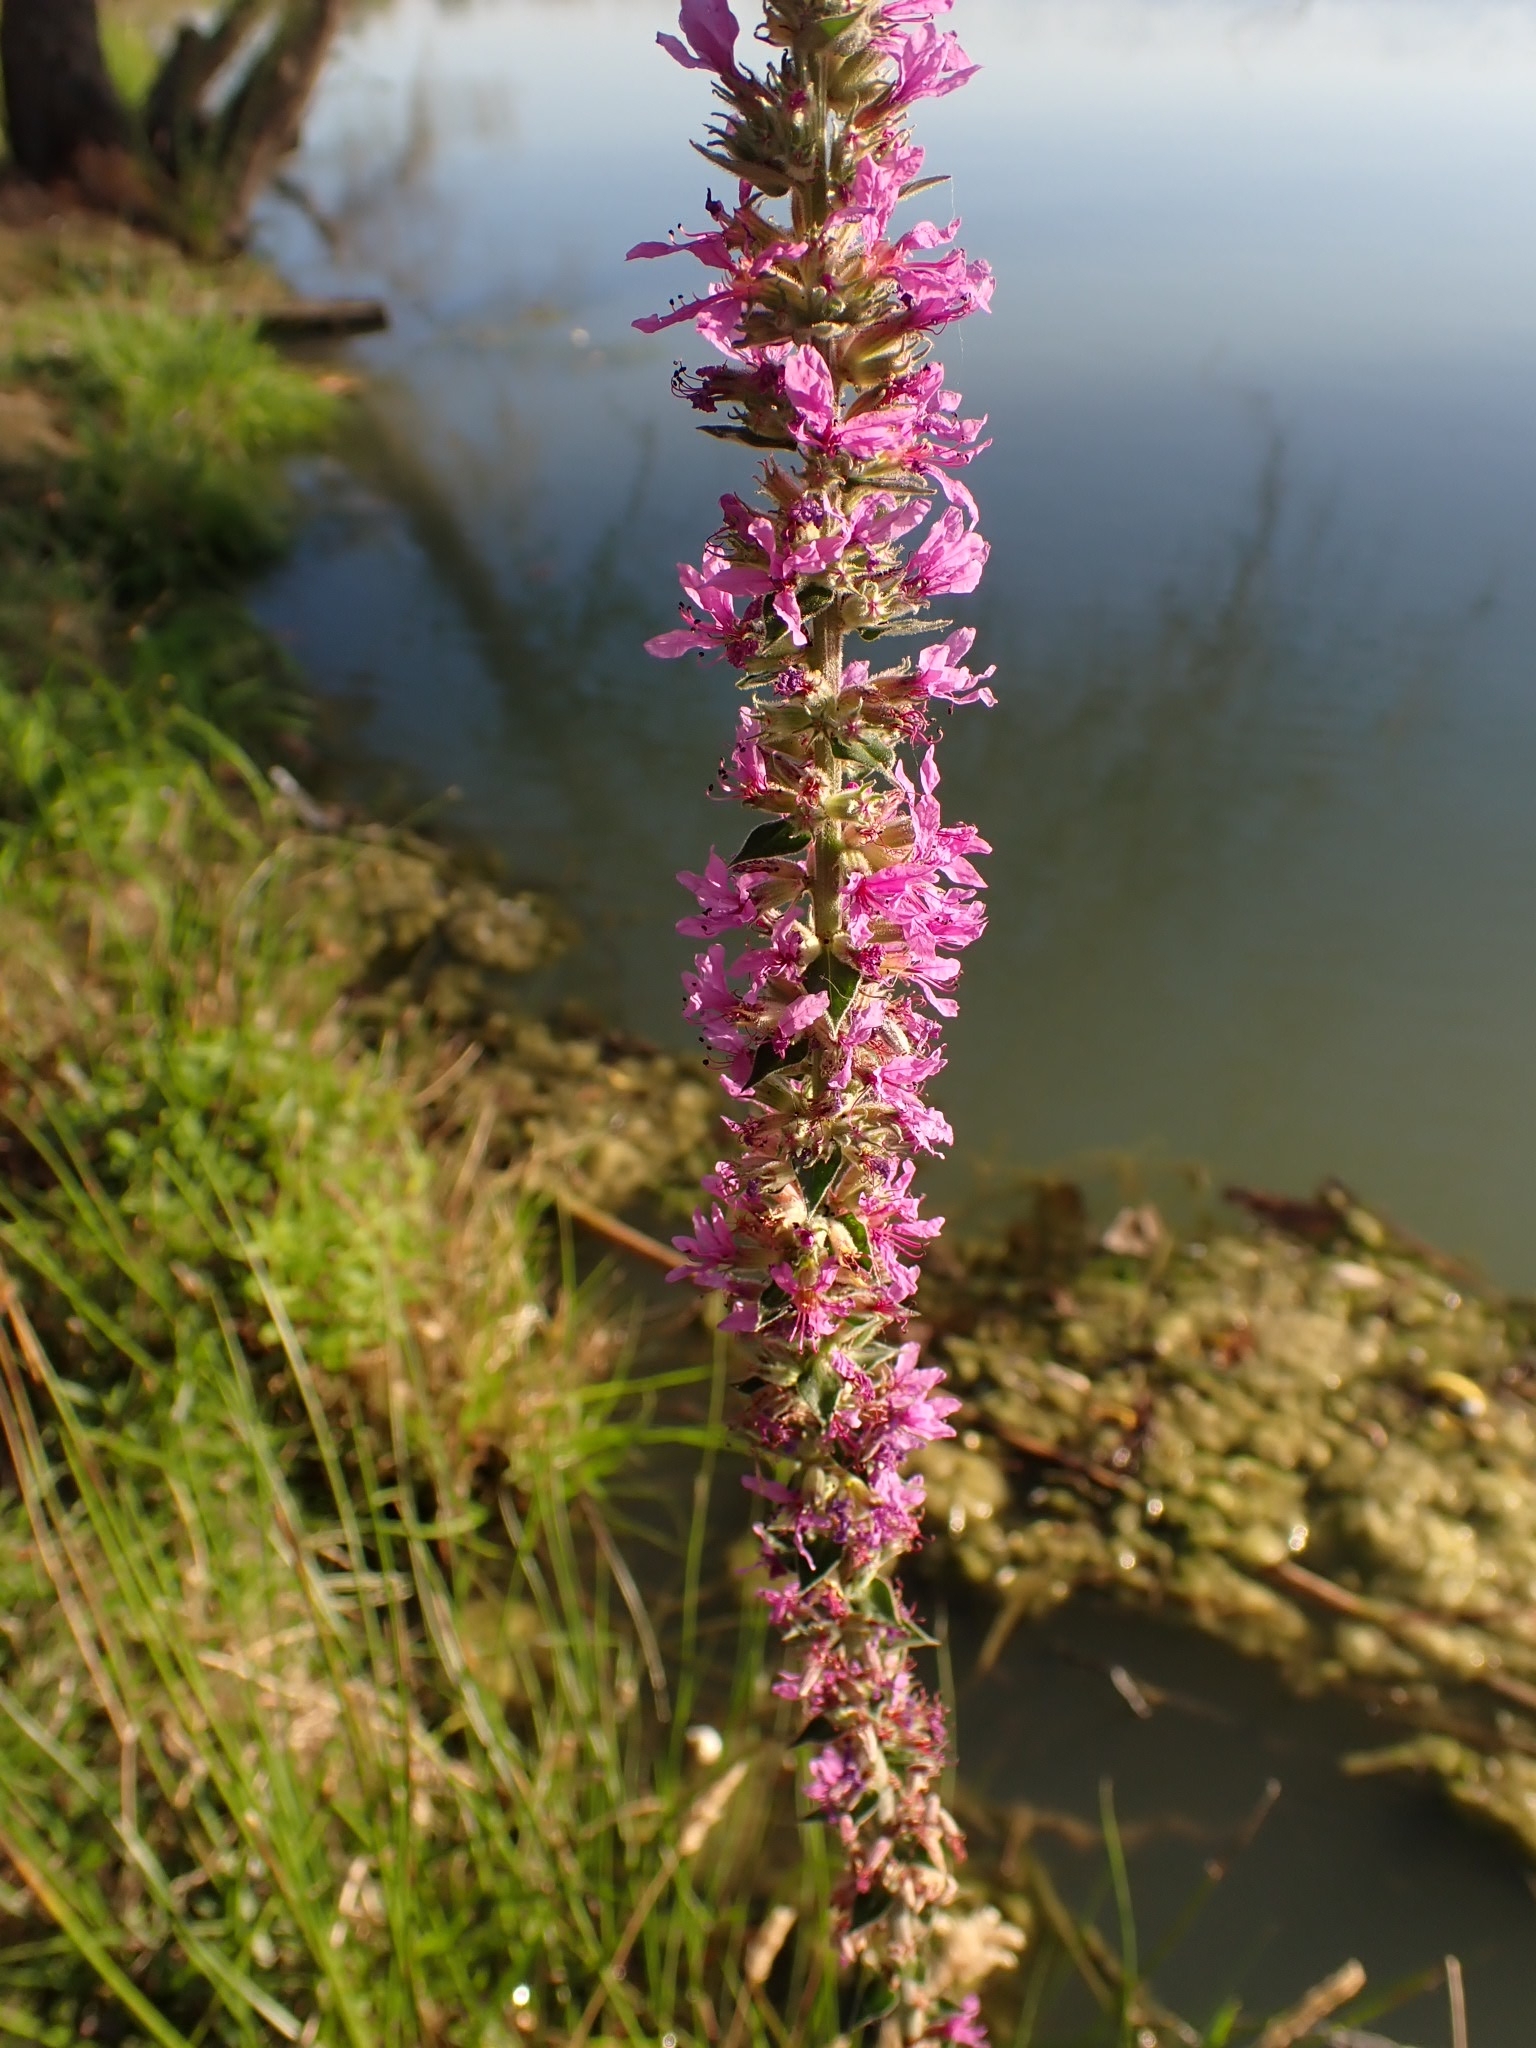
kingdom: Plantae
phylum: Tracheophyta
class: Magnoliopsida
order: Myrtales
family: Lythraceae
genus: Lythrum
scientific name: Lythrum salicaria
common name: Purple loosestrife
